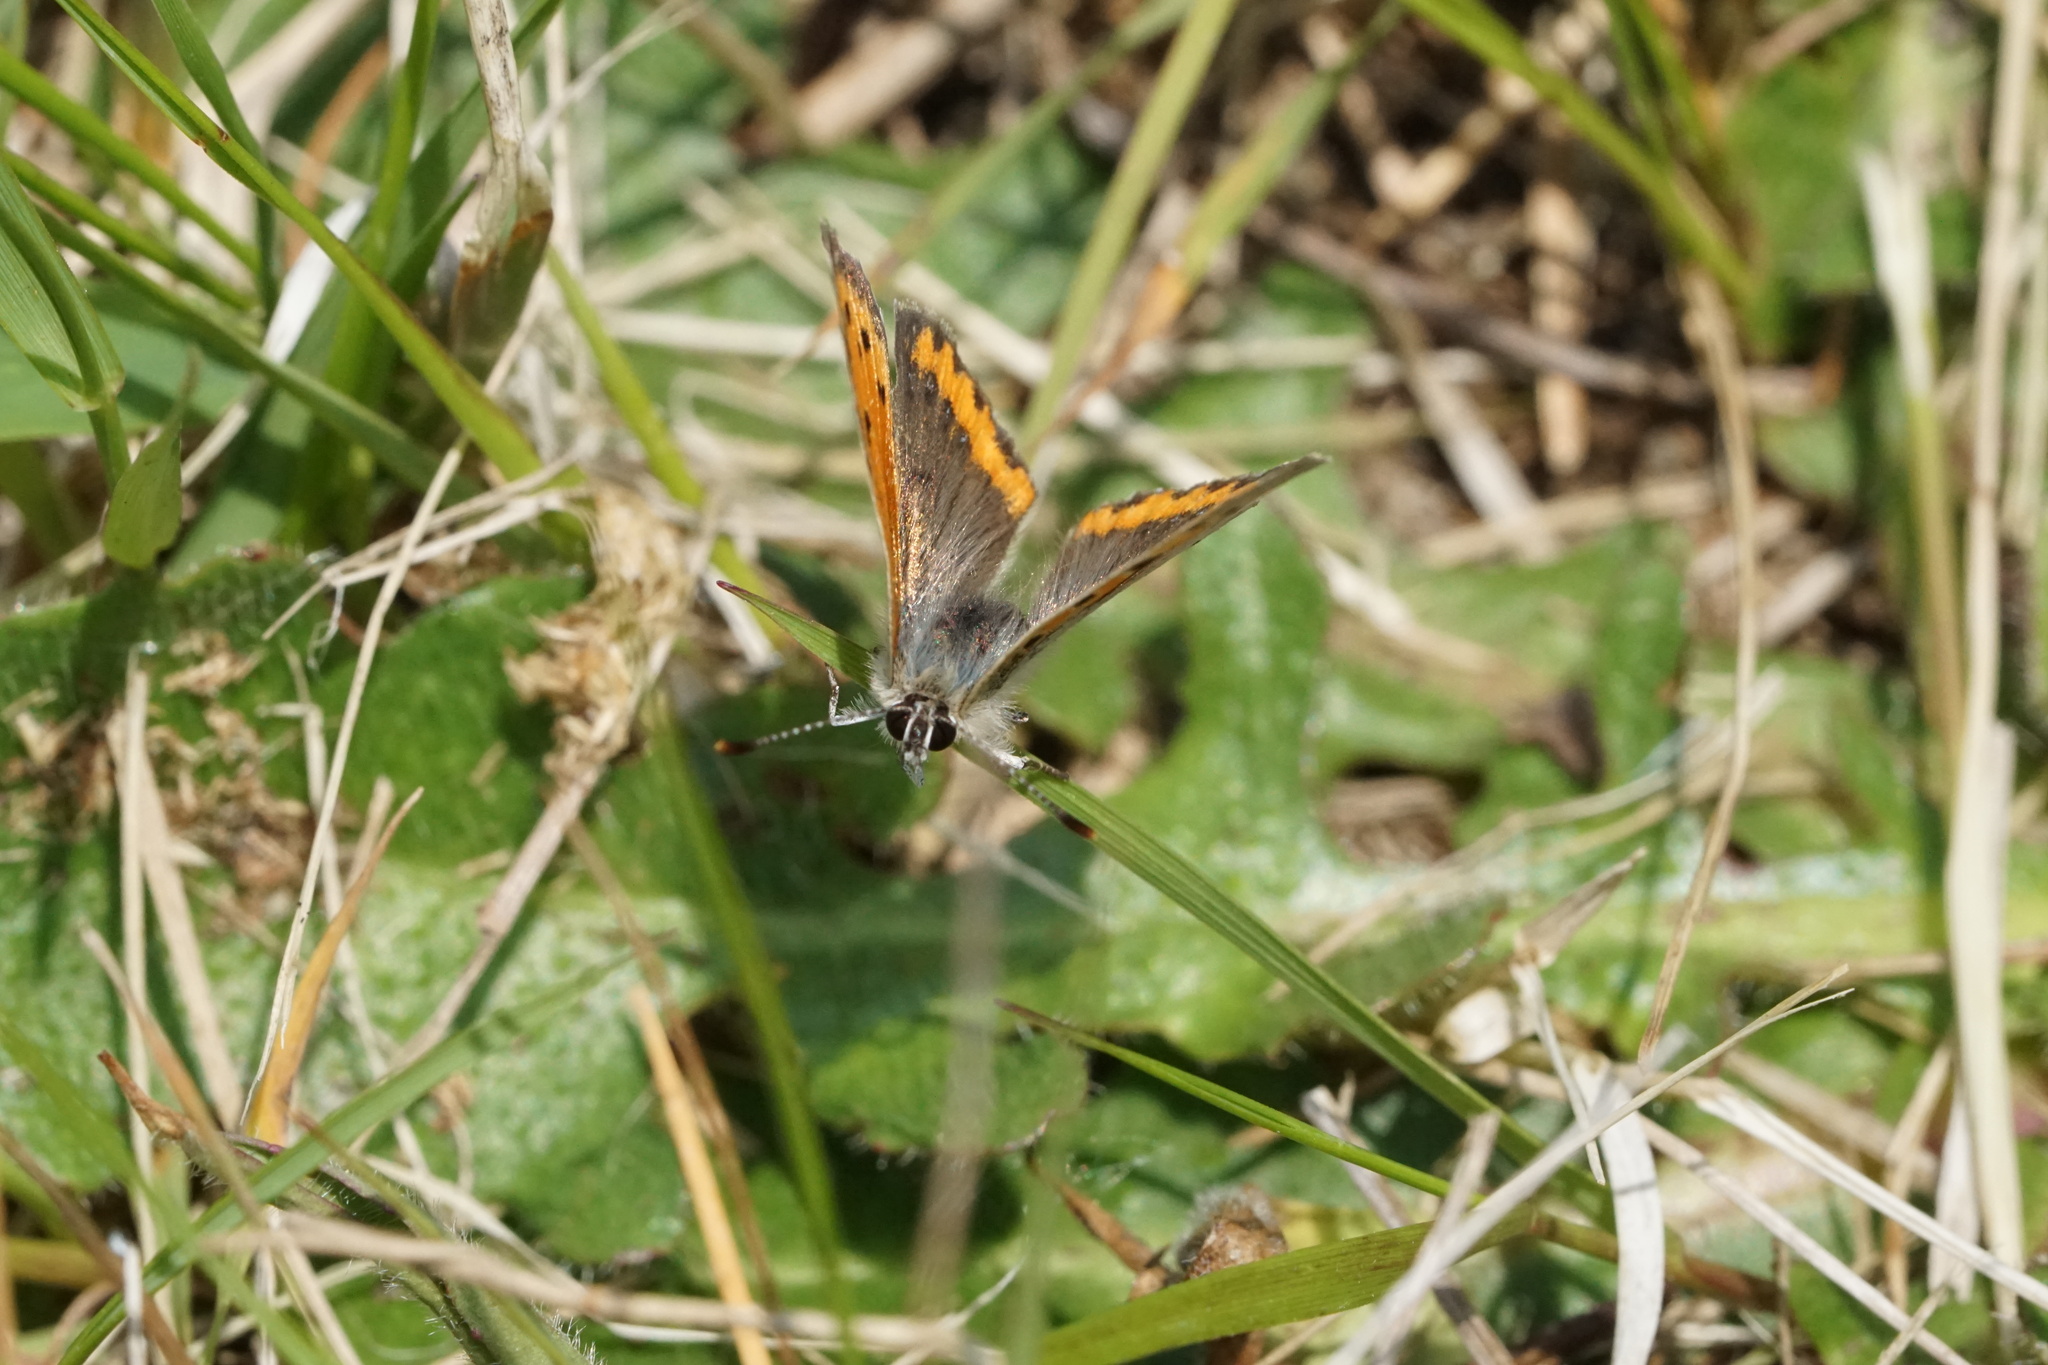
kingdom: Animalia
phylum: Arthropoda
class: Insecta
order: Lepidoptera
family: Lycaenidae
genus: Lycaena
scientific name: Lycaena hypophlaeas
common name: American copper
